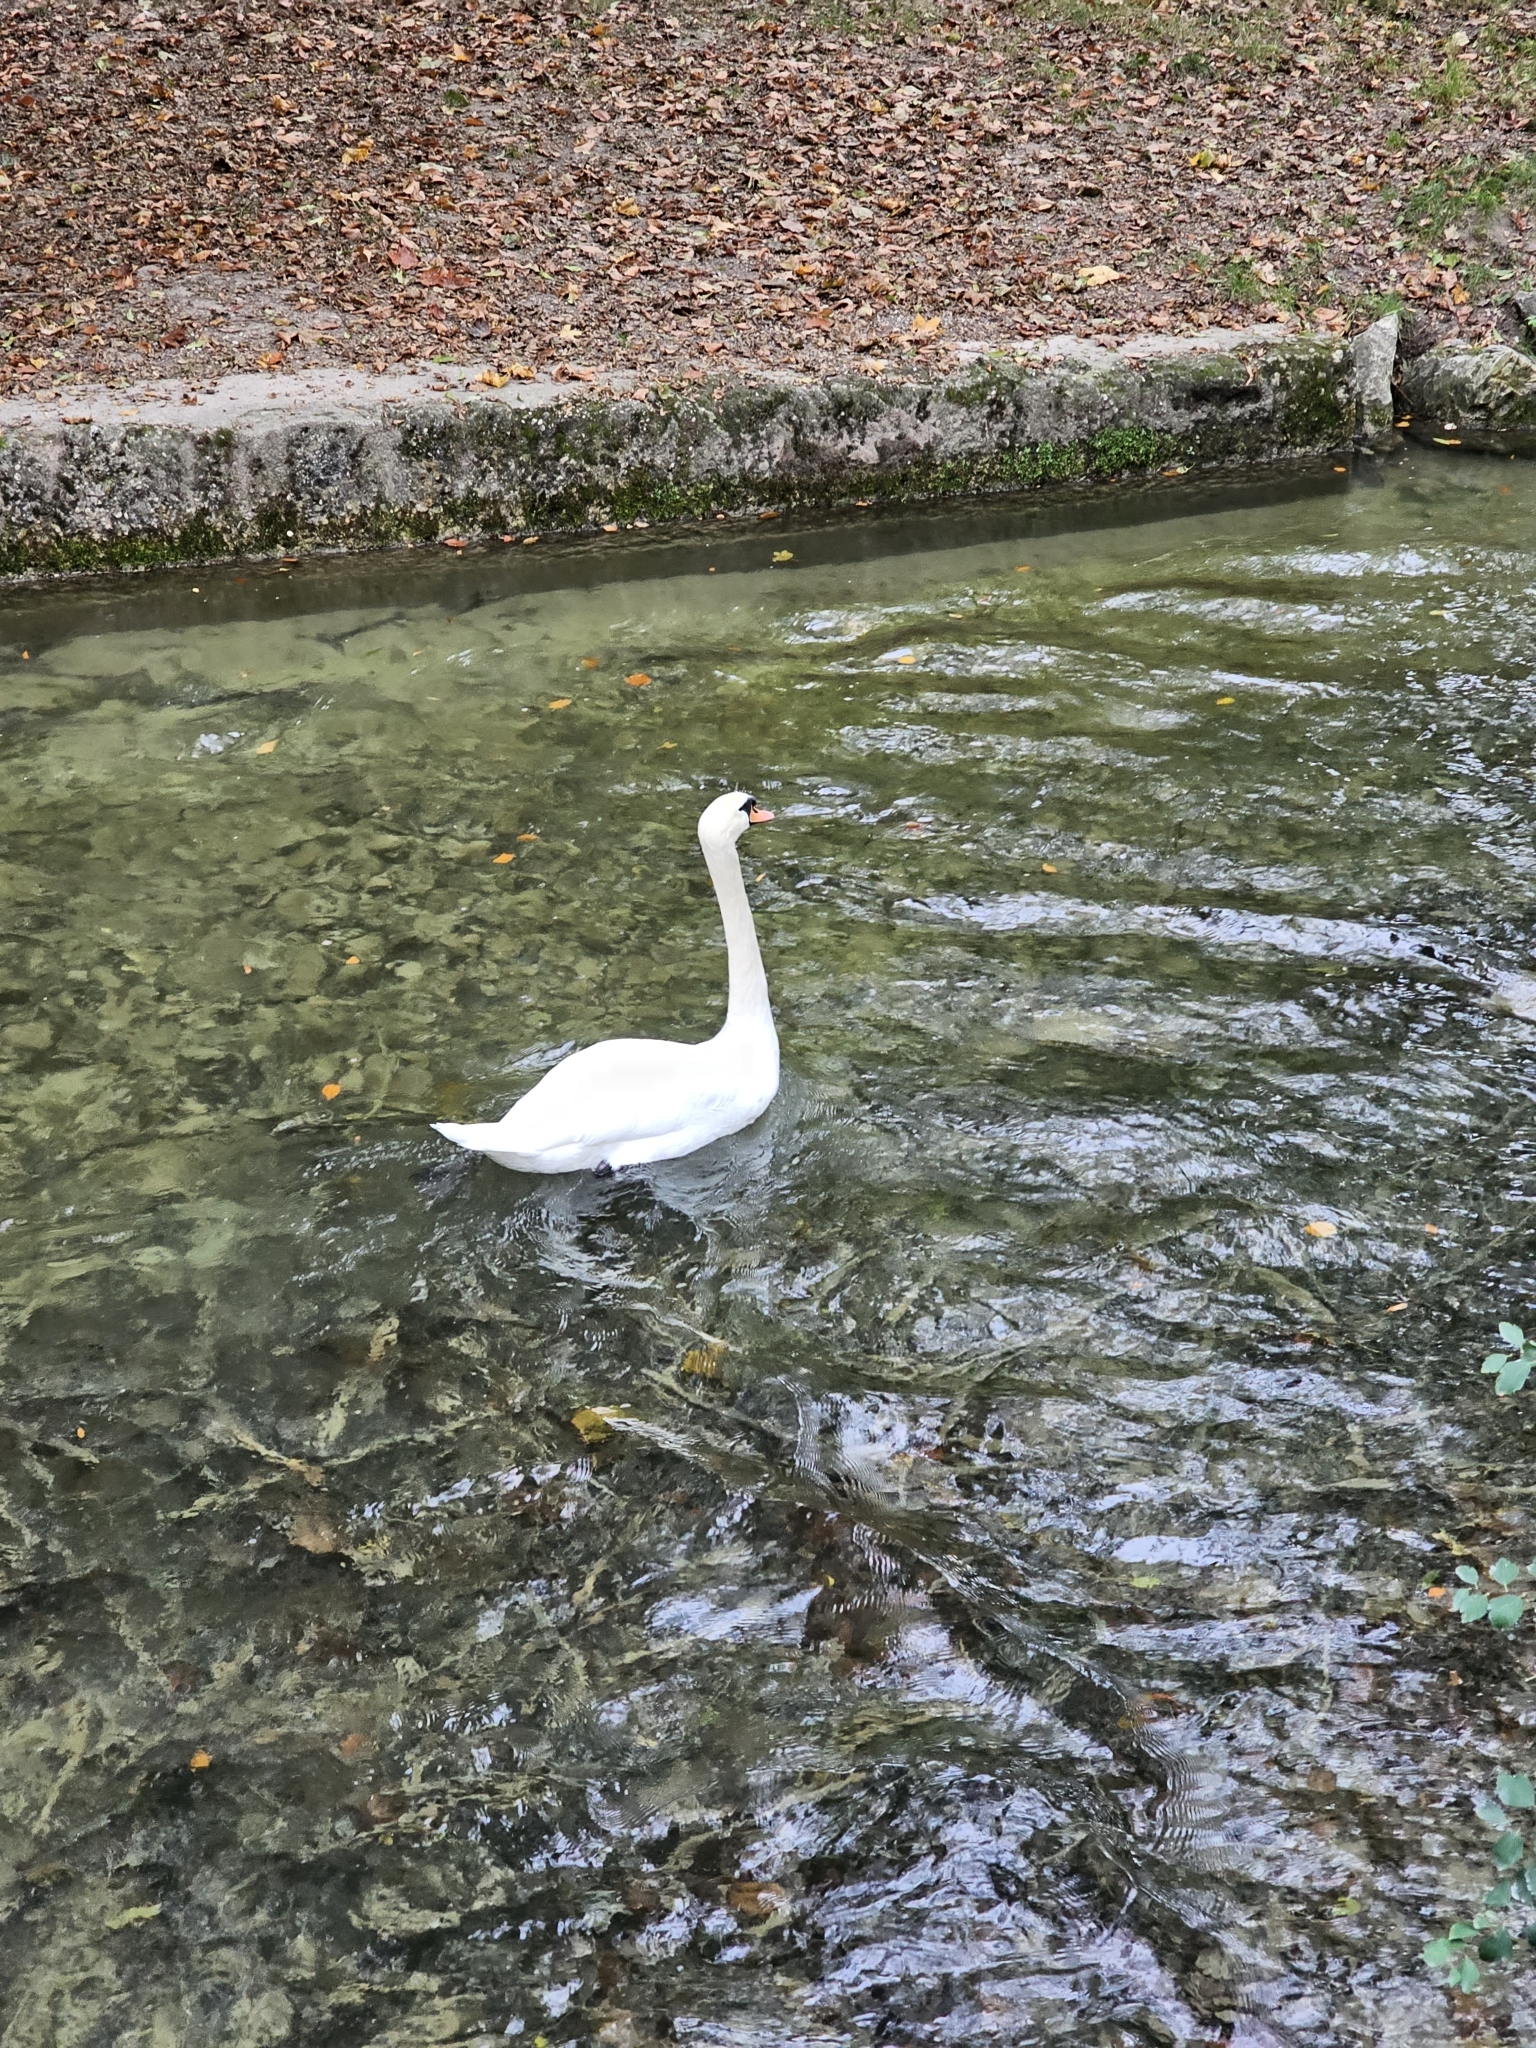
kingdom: Animalia
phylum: Chordata
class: Aves
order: Anseriformes
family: Anatidae
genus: Cygnus
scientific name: Cygnus olor
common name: Mute swan
